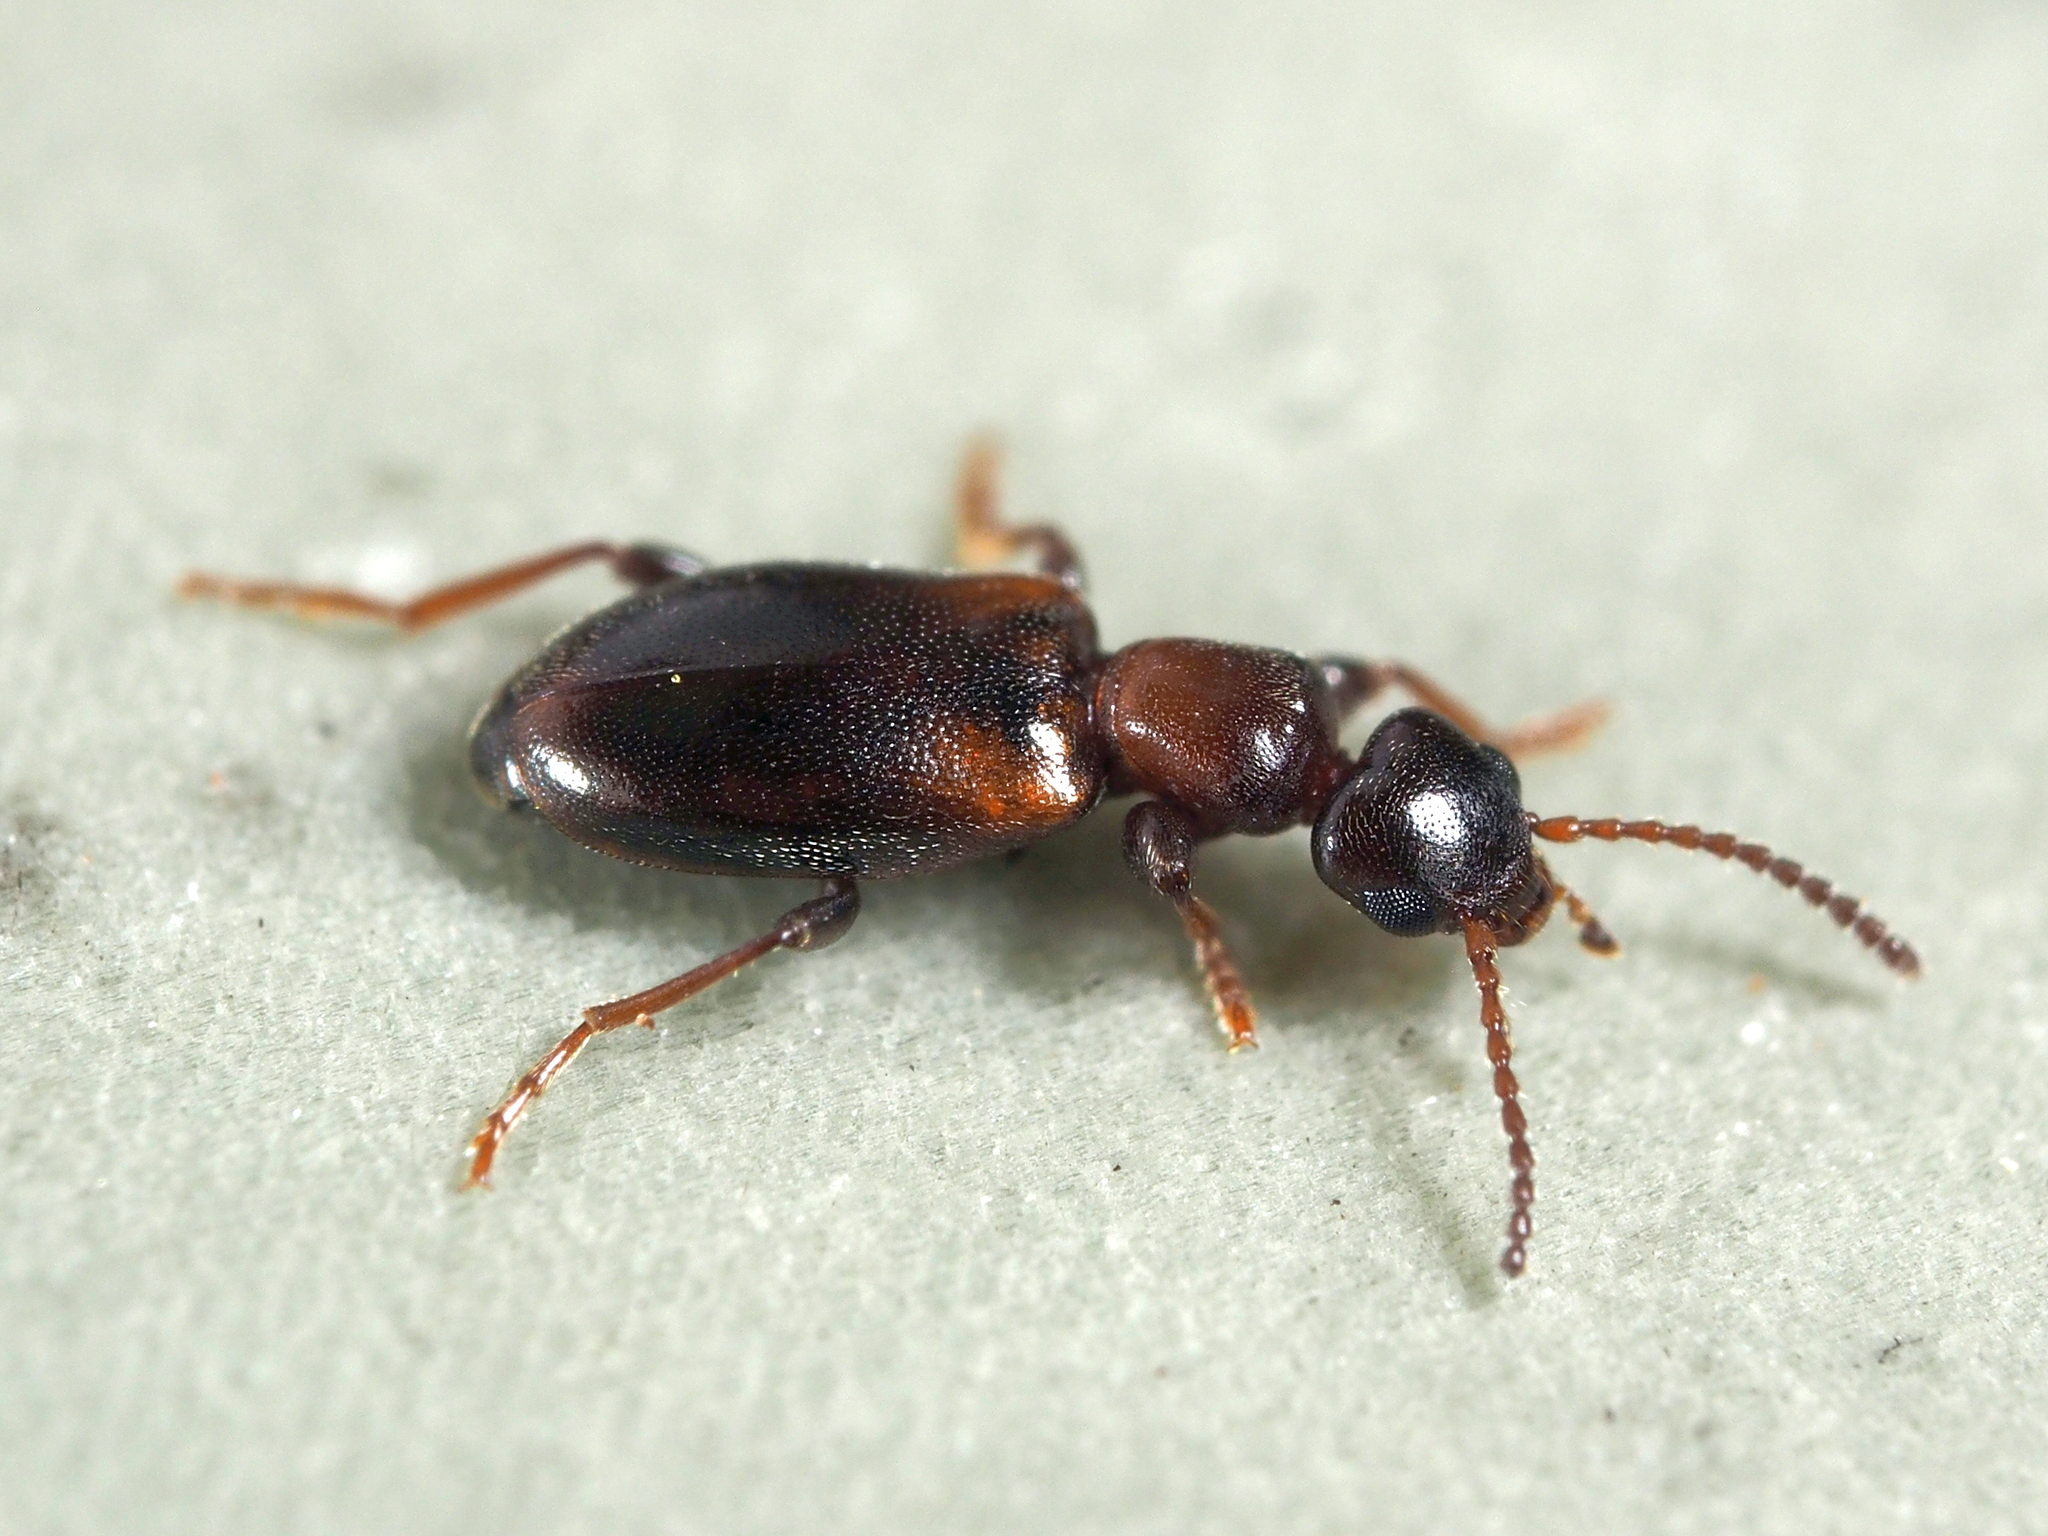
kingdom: Animalia
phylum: Arthropoda
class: Insecta
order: Coleoptera
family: Anthicidae
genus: Omonadus
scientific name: Omonadus floralis
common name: Narrownecked grain beetle
